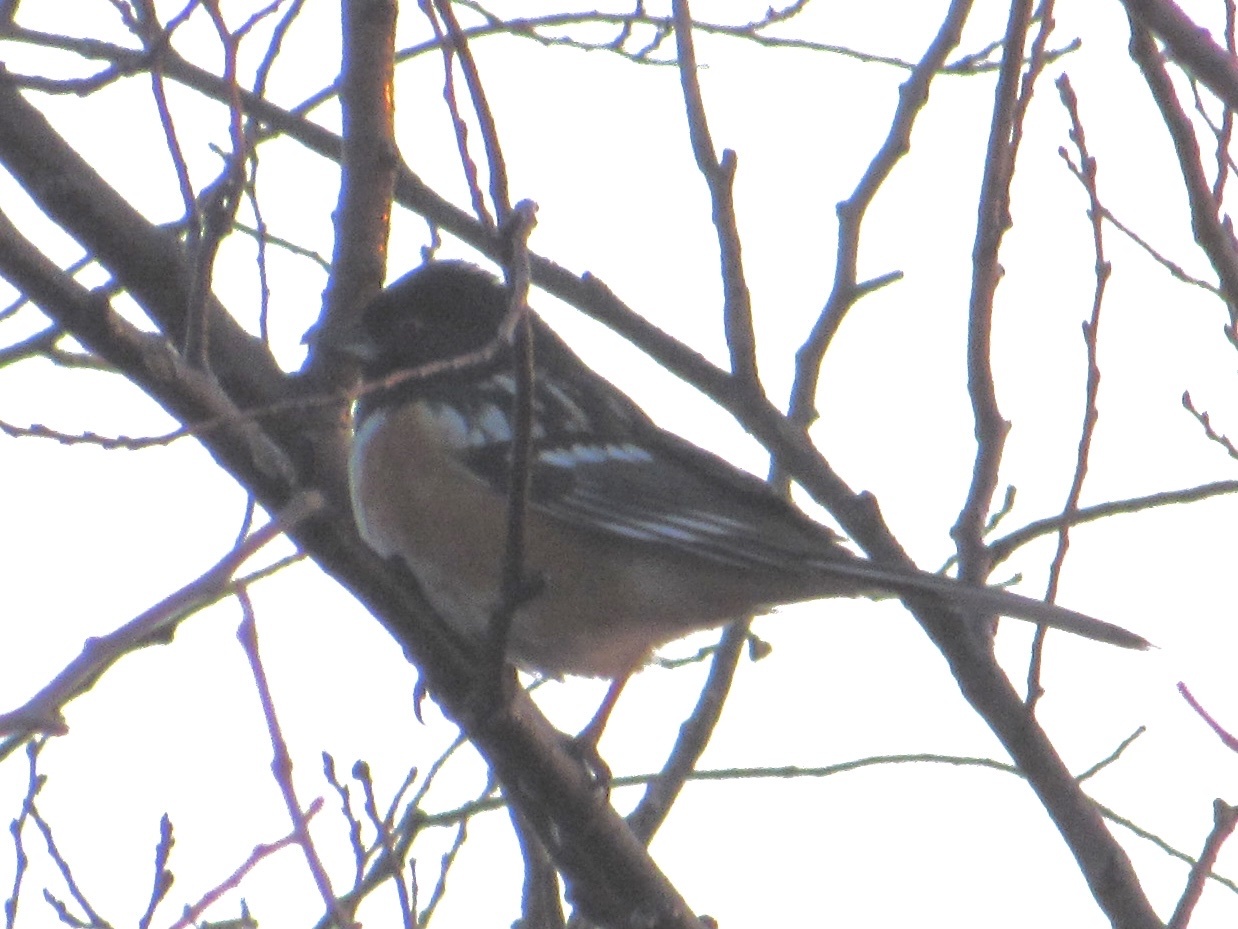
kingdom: Animalia
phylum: Chordata
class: Aves
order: Passeriformes
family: Passerellidae
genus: Pipilo
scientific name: Pipilo maculatus
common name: Spotted towhee
